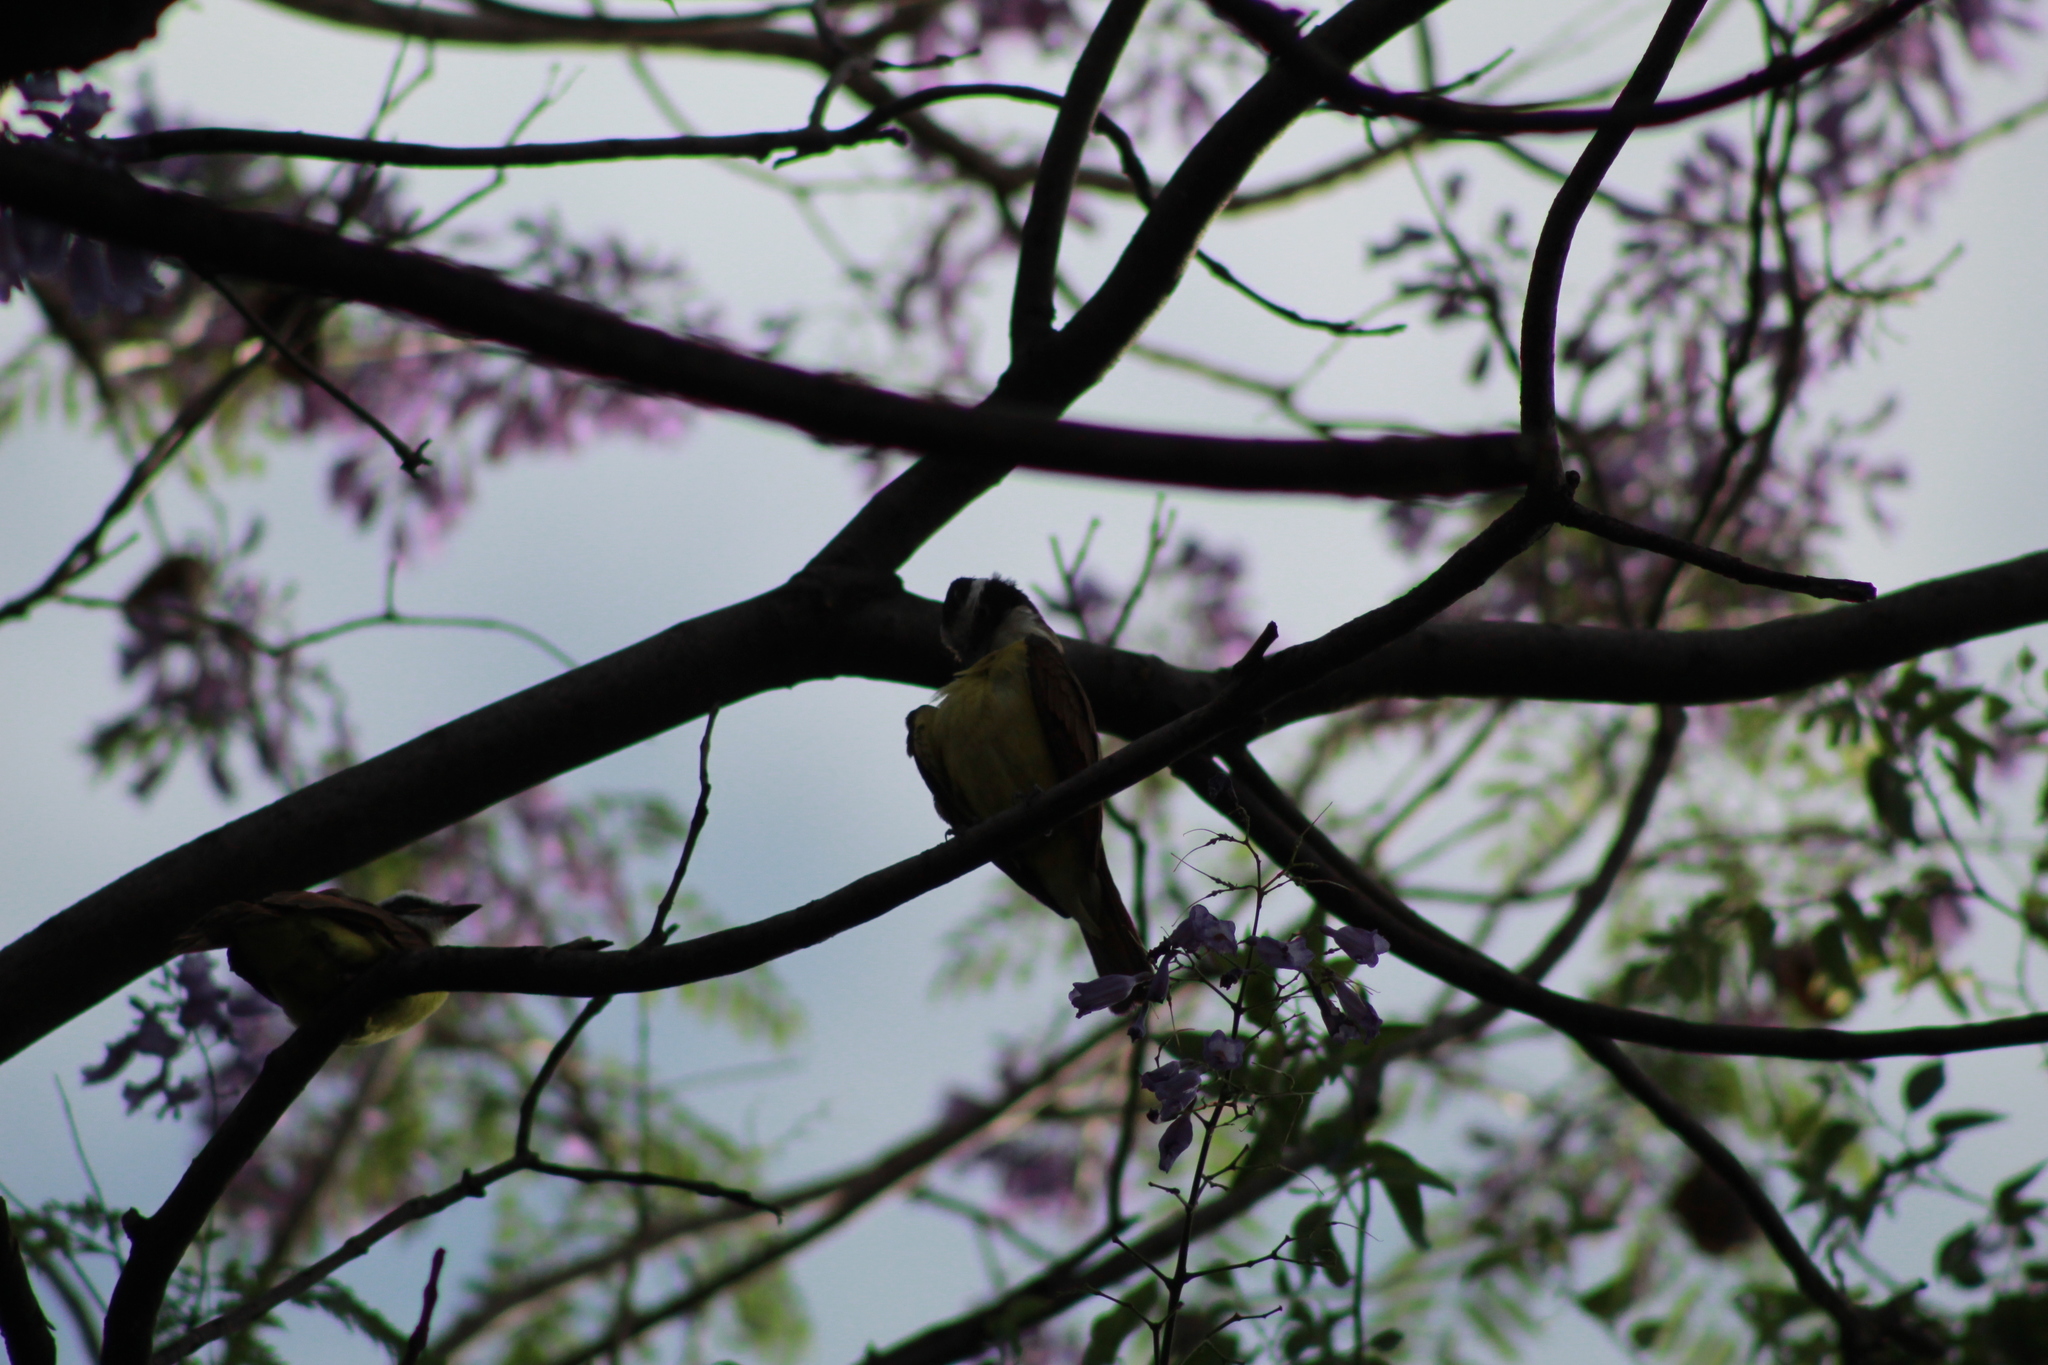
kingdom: Animalia
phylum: Chordata
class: Aves
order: Passeriformes
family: Tyrannidae
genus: Pitangus
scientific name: Pitangus sulphuratus
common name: Great kiskadee
